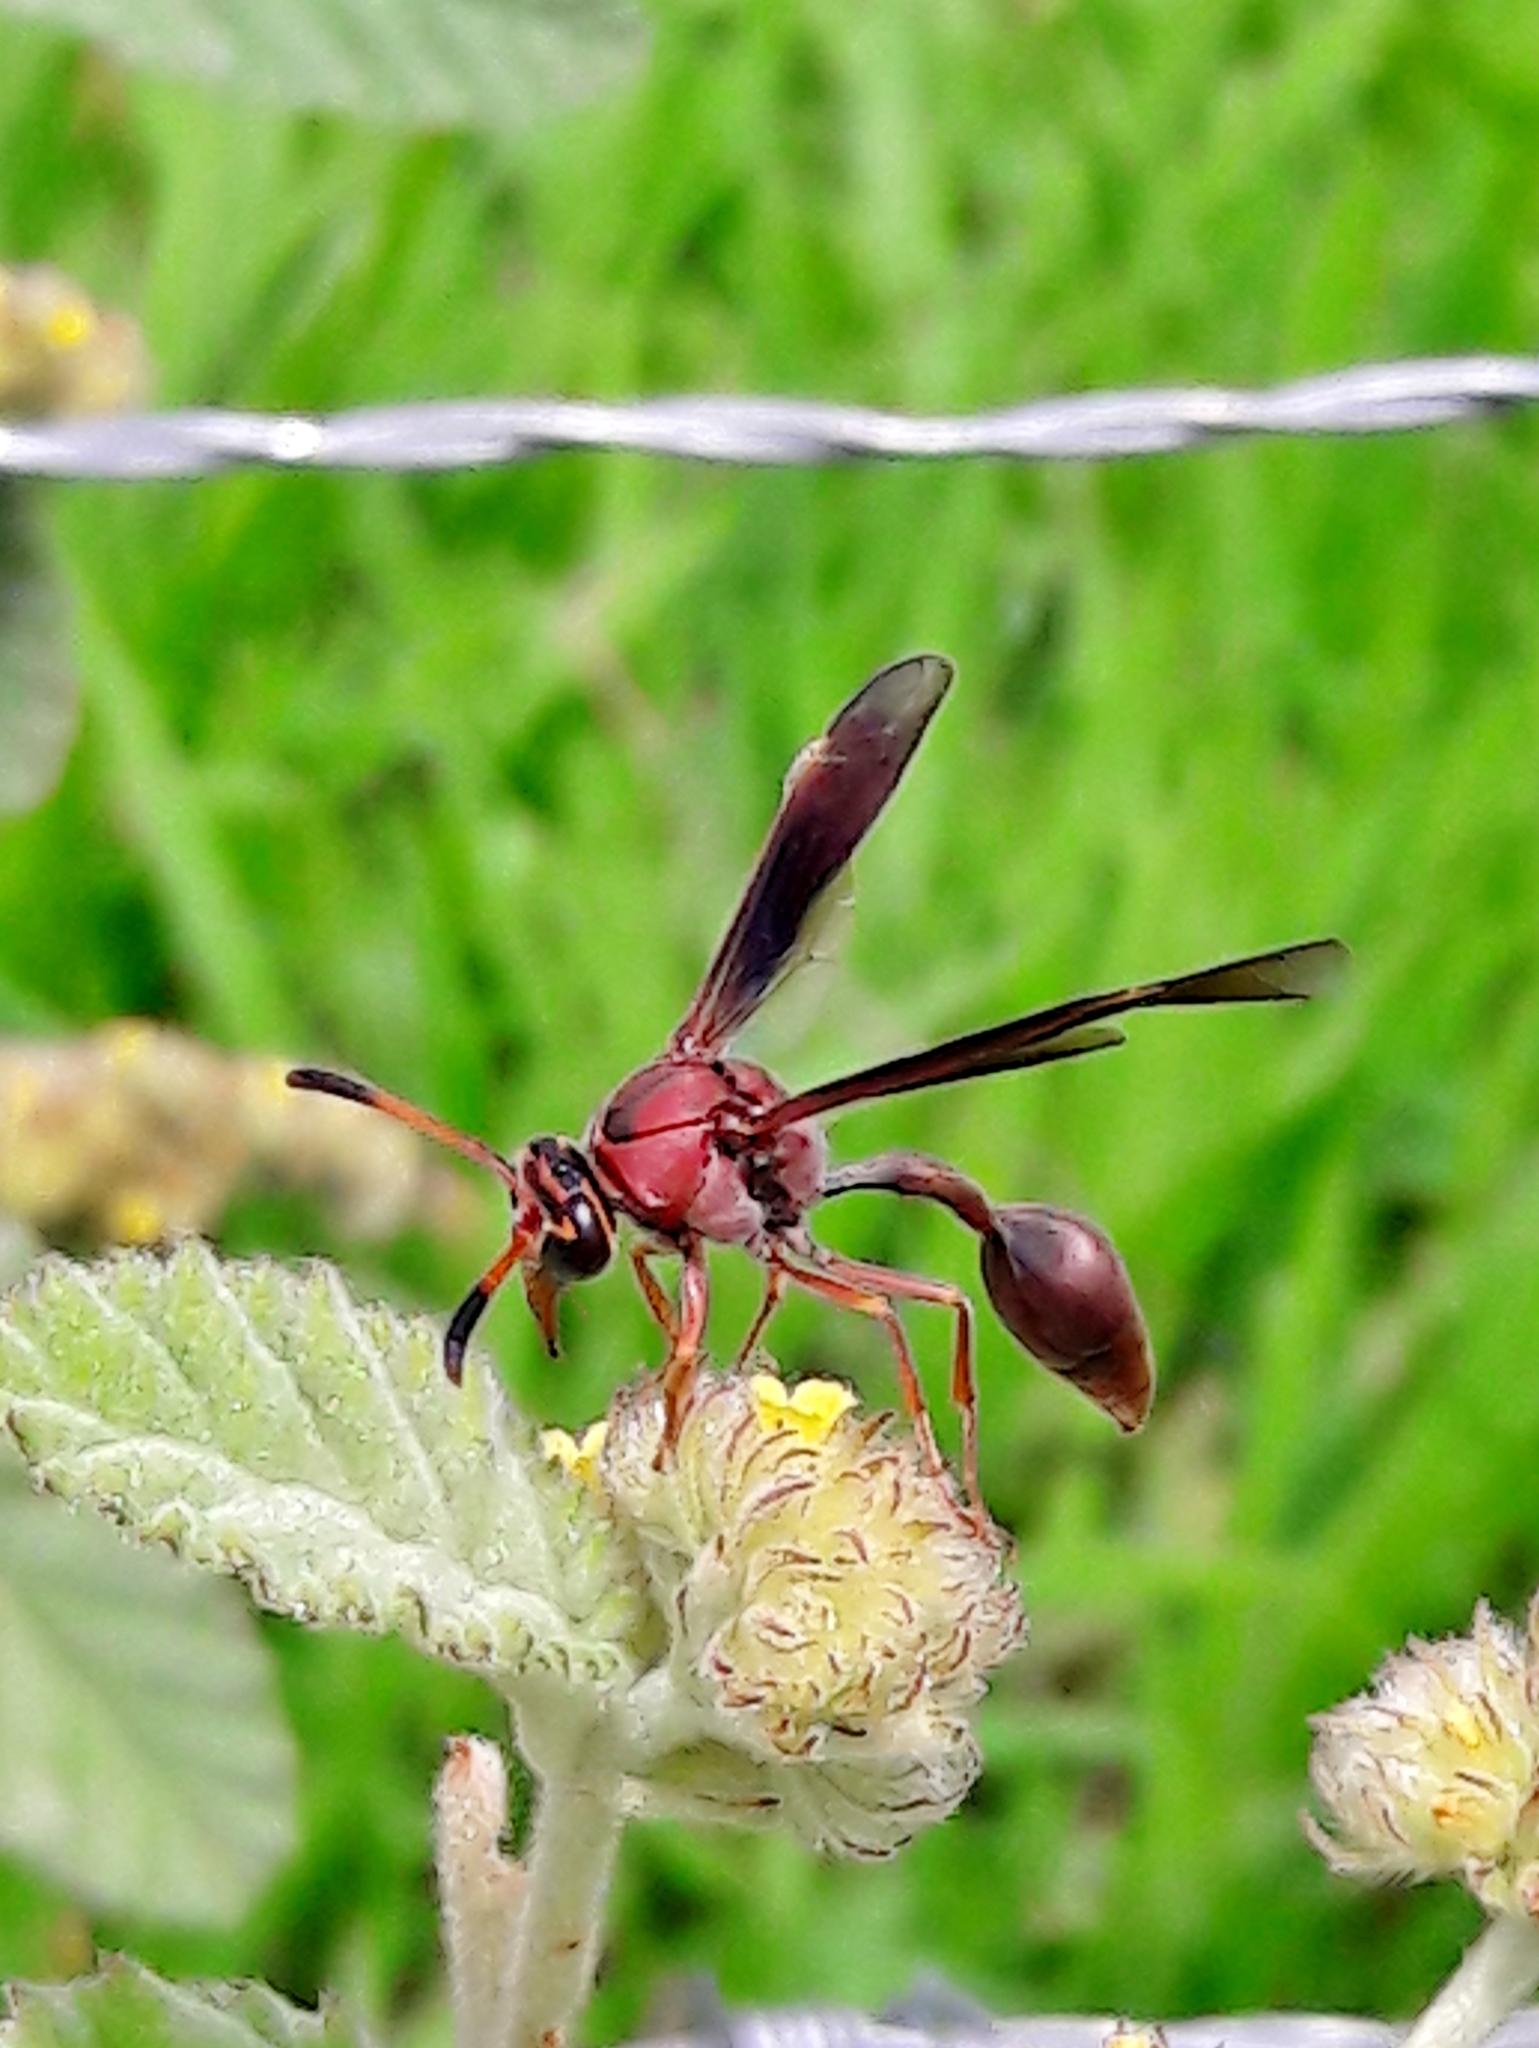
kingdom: Animalia
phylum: Arthropoda
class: Insecta
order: Hymenoptera
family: Eumenidae
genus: Zeta
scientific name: Zeta argillaceum
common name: Potter wasp
